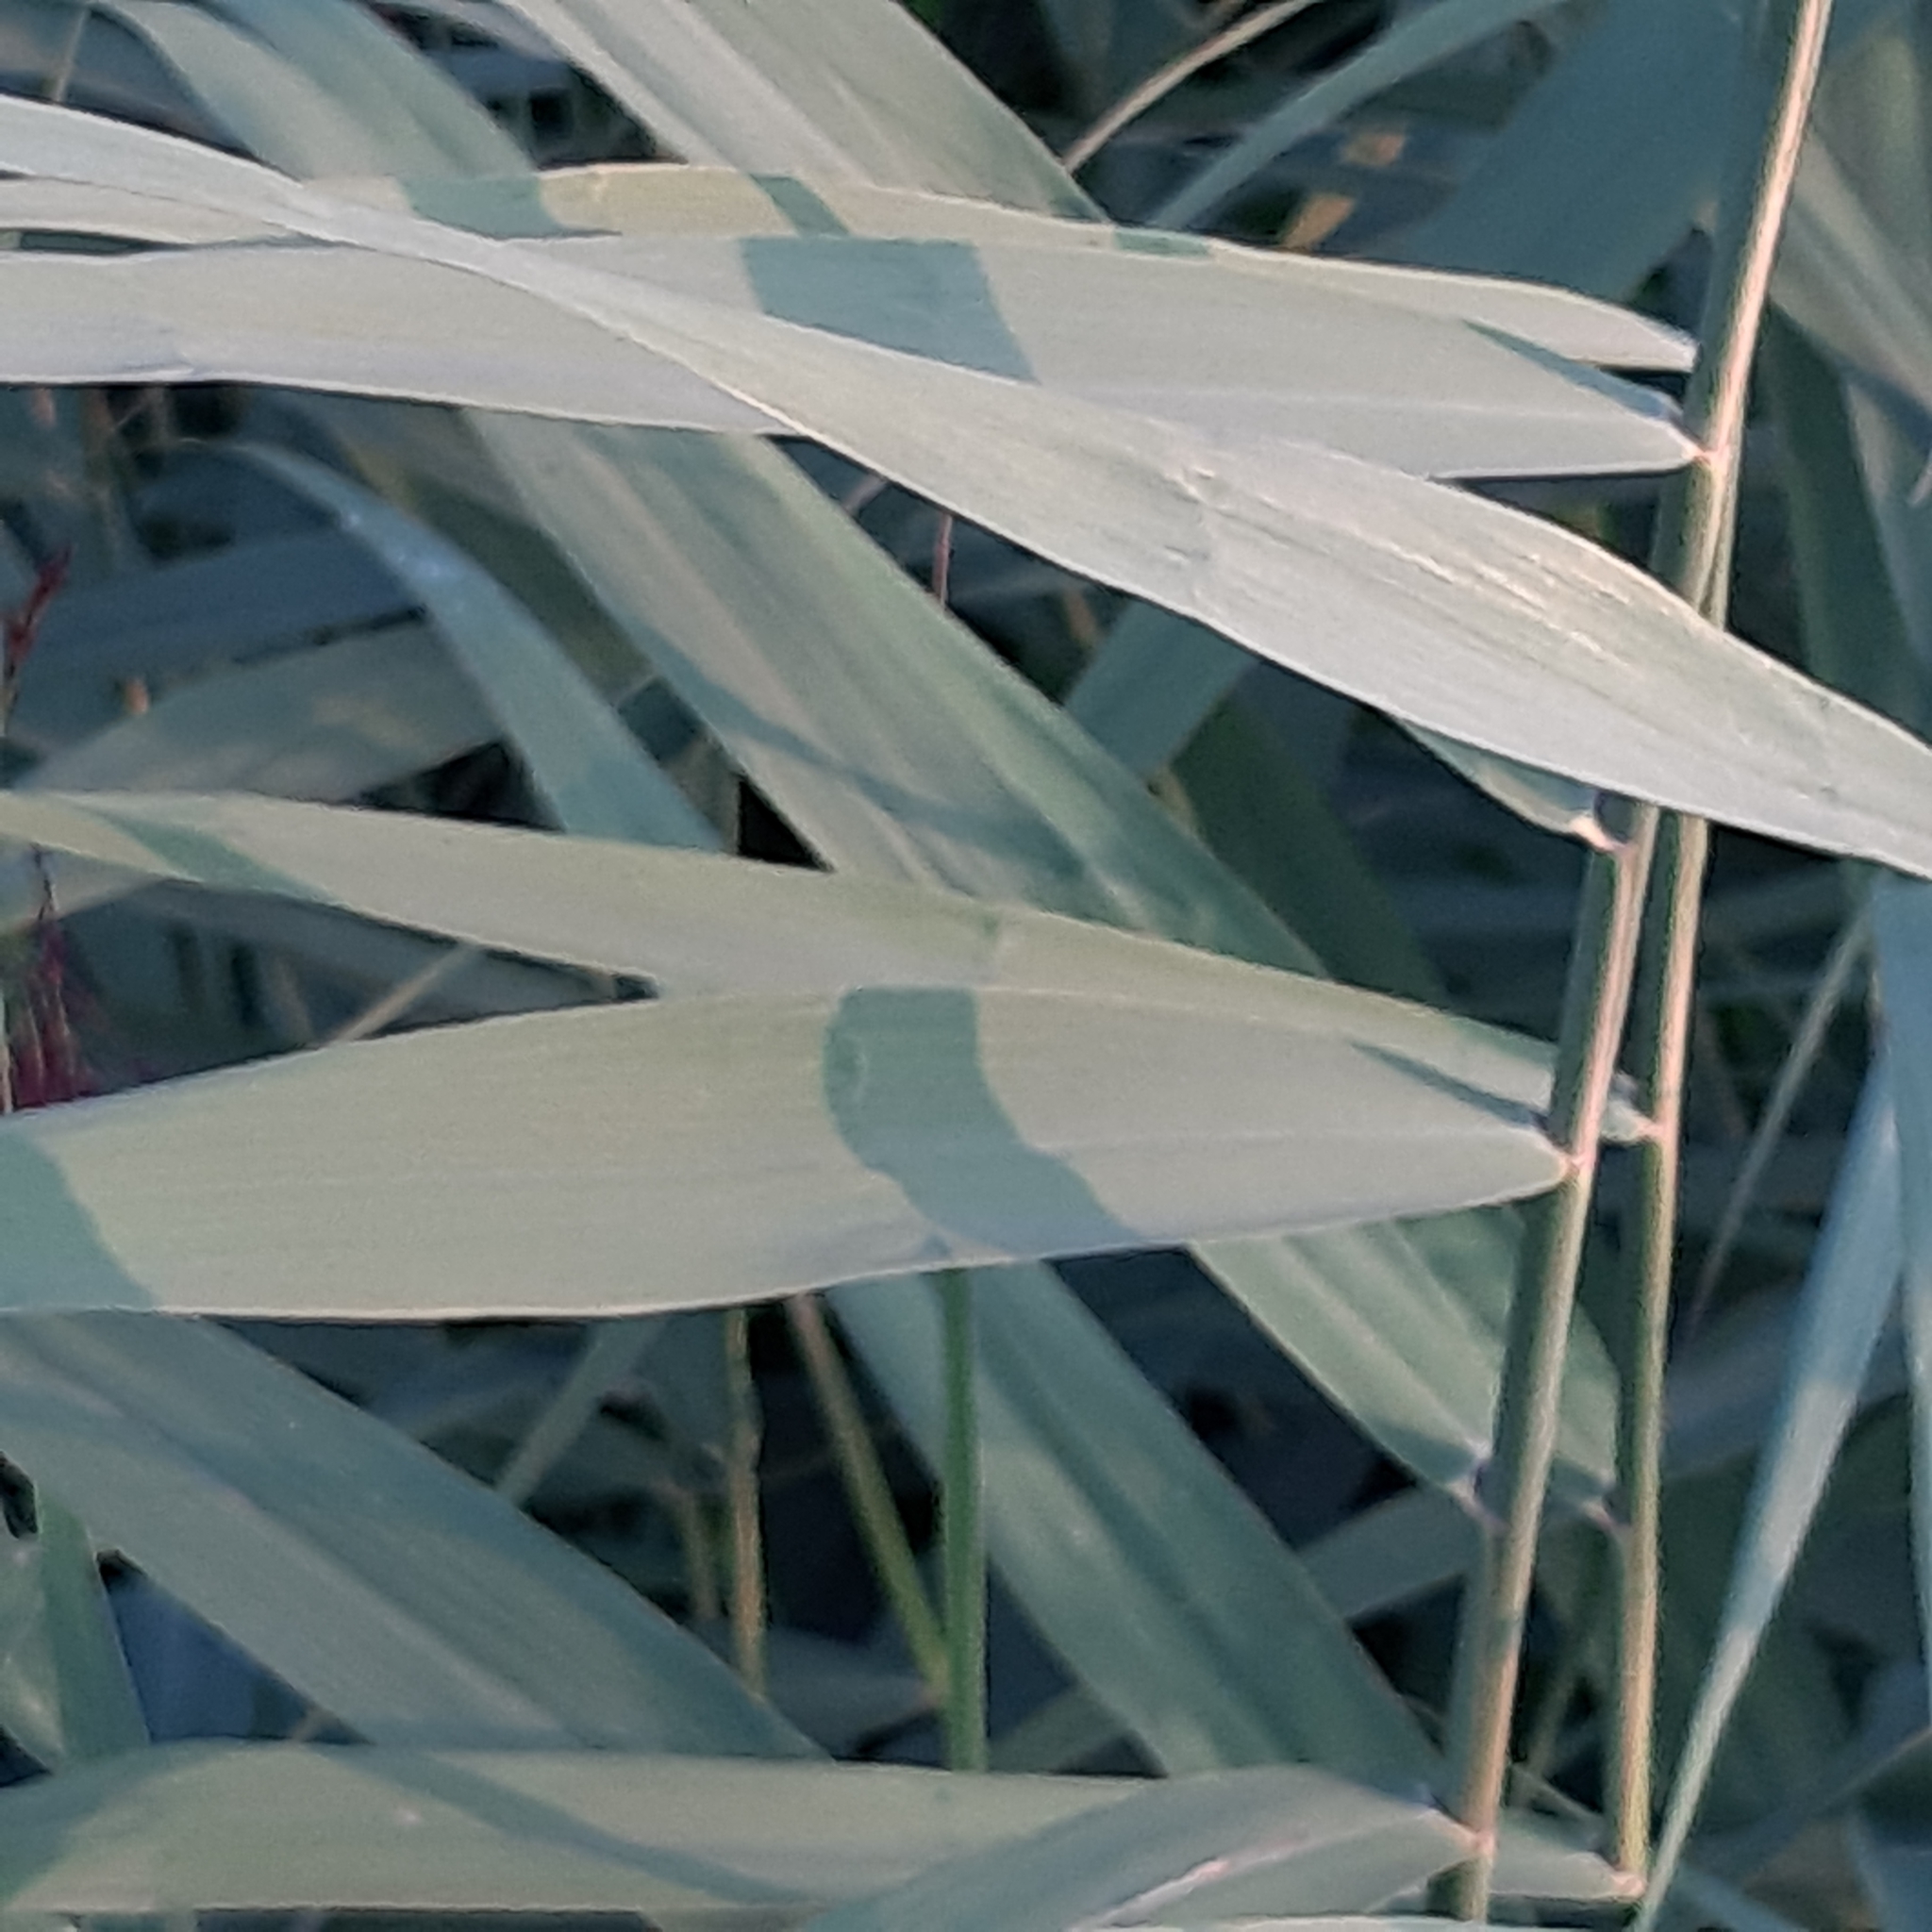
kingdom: Plantae
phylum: Tracheophyta
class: Liliopsida
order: Poales
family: Poaceae
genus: Phragmites
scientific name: Phragmites australis
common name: Common reed
